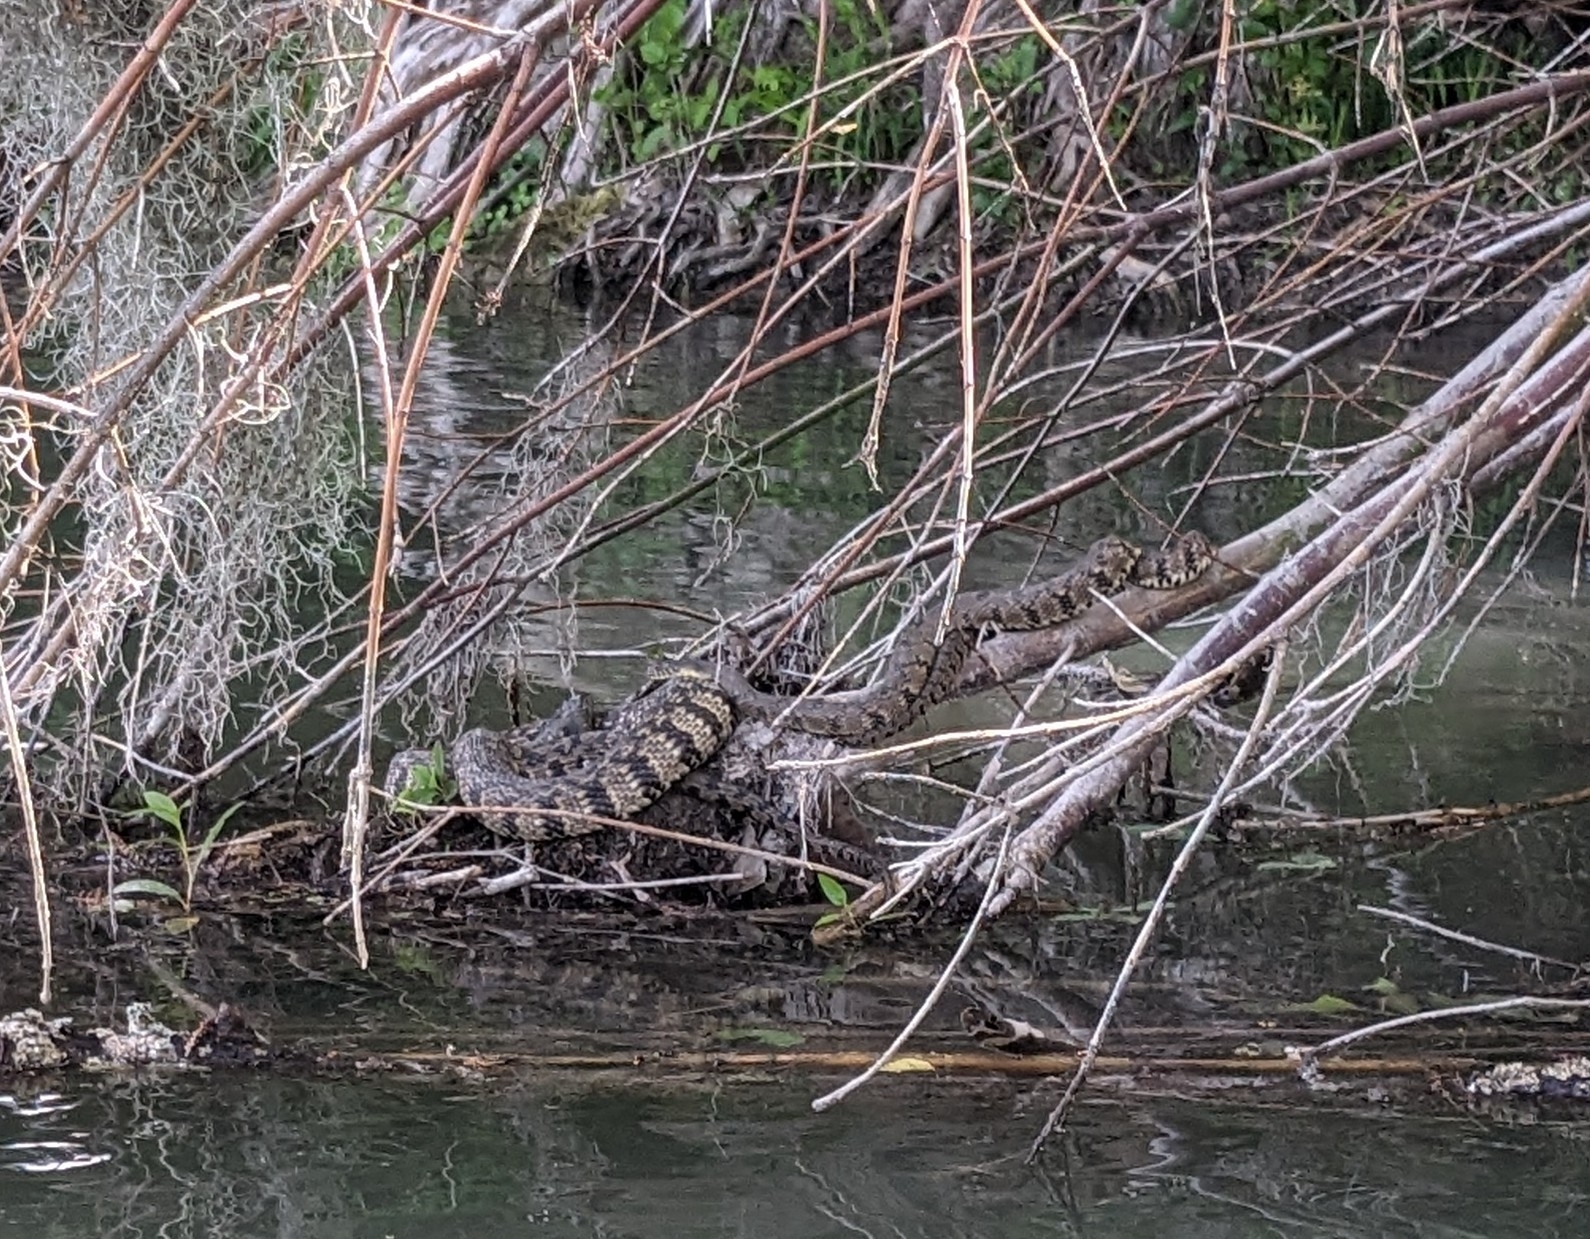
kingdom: Animalia
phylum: Chordata
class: Squamata
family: Colubridae
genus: Nerodia
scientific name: Nerodia rhombifer
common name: Diamondback water snake
